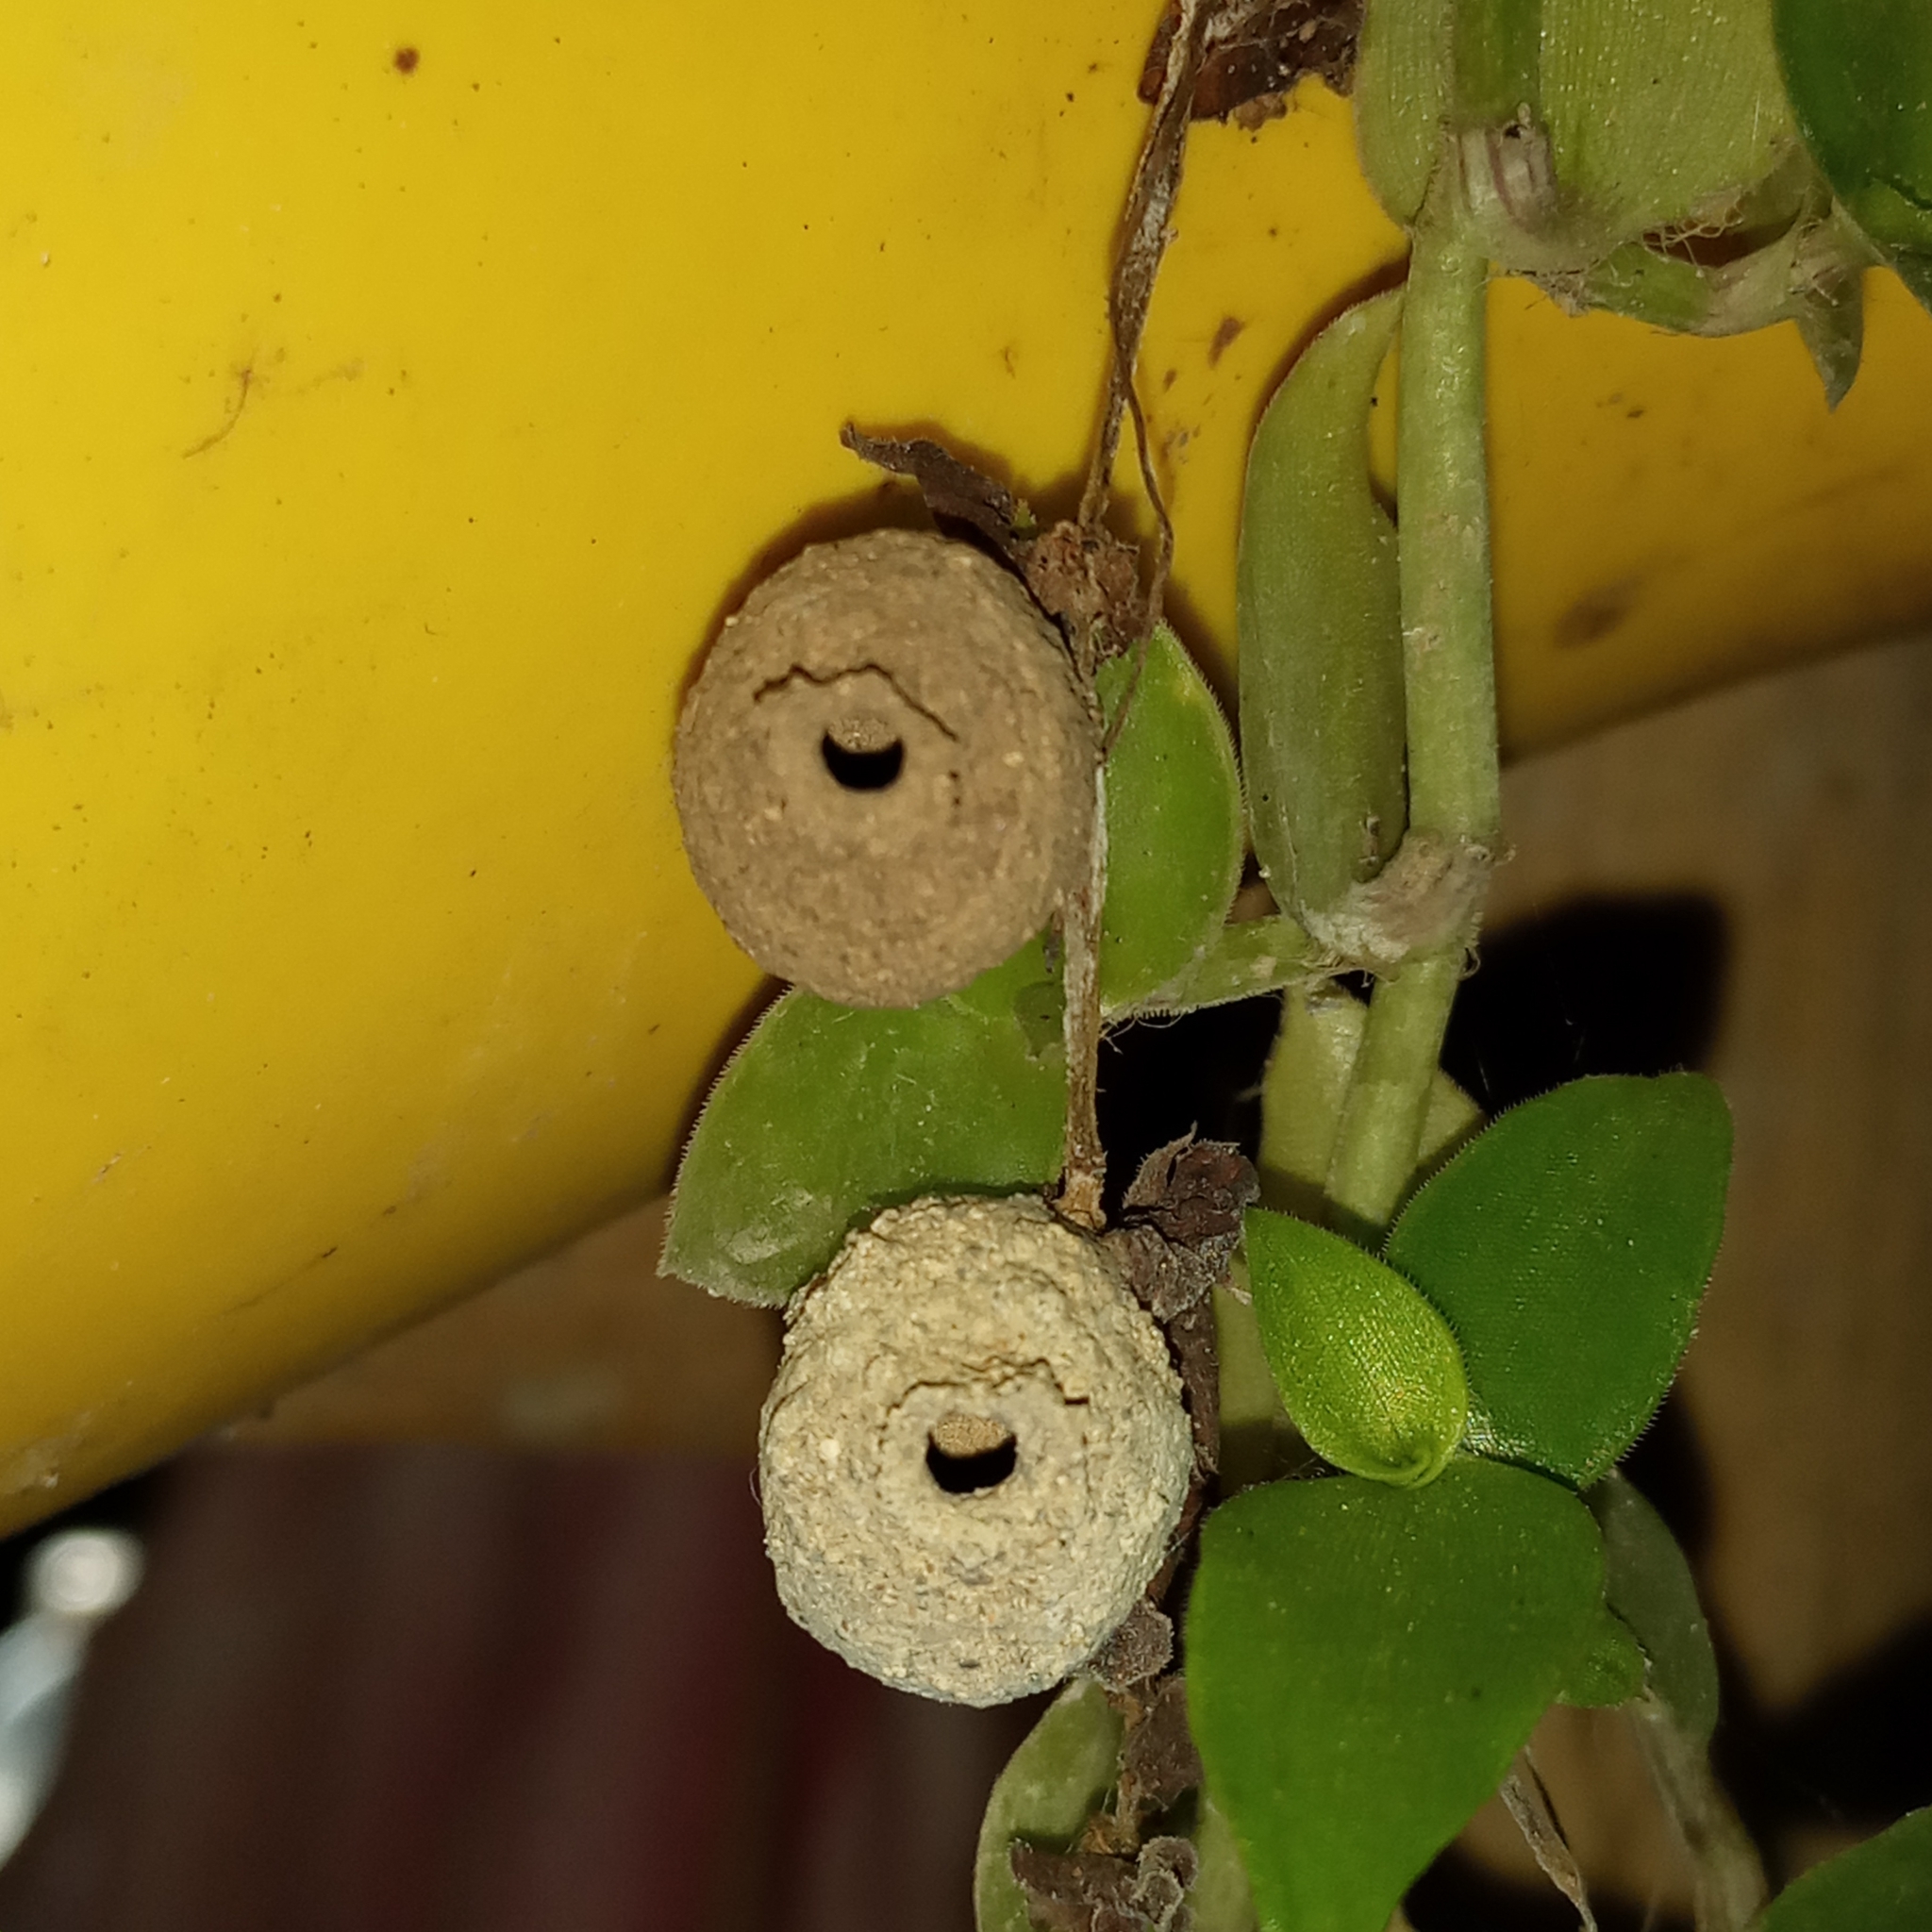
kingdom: Animalia
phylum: Arthropoda
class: Insecta
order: Hymenoptera
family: Eumenidae
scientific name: Eumenidae
